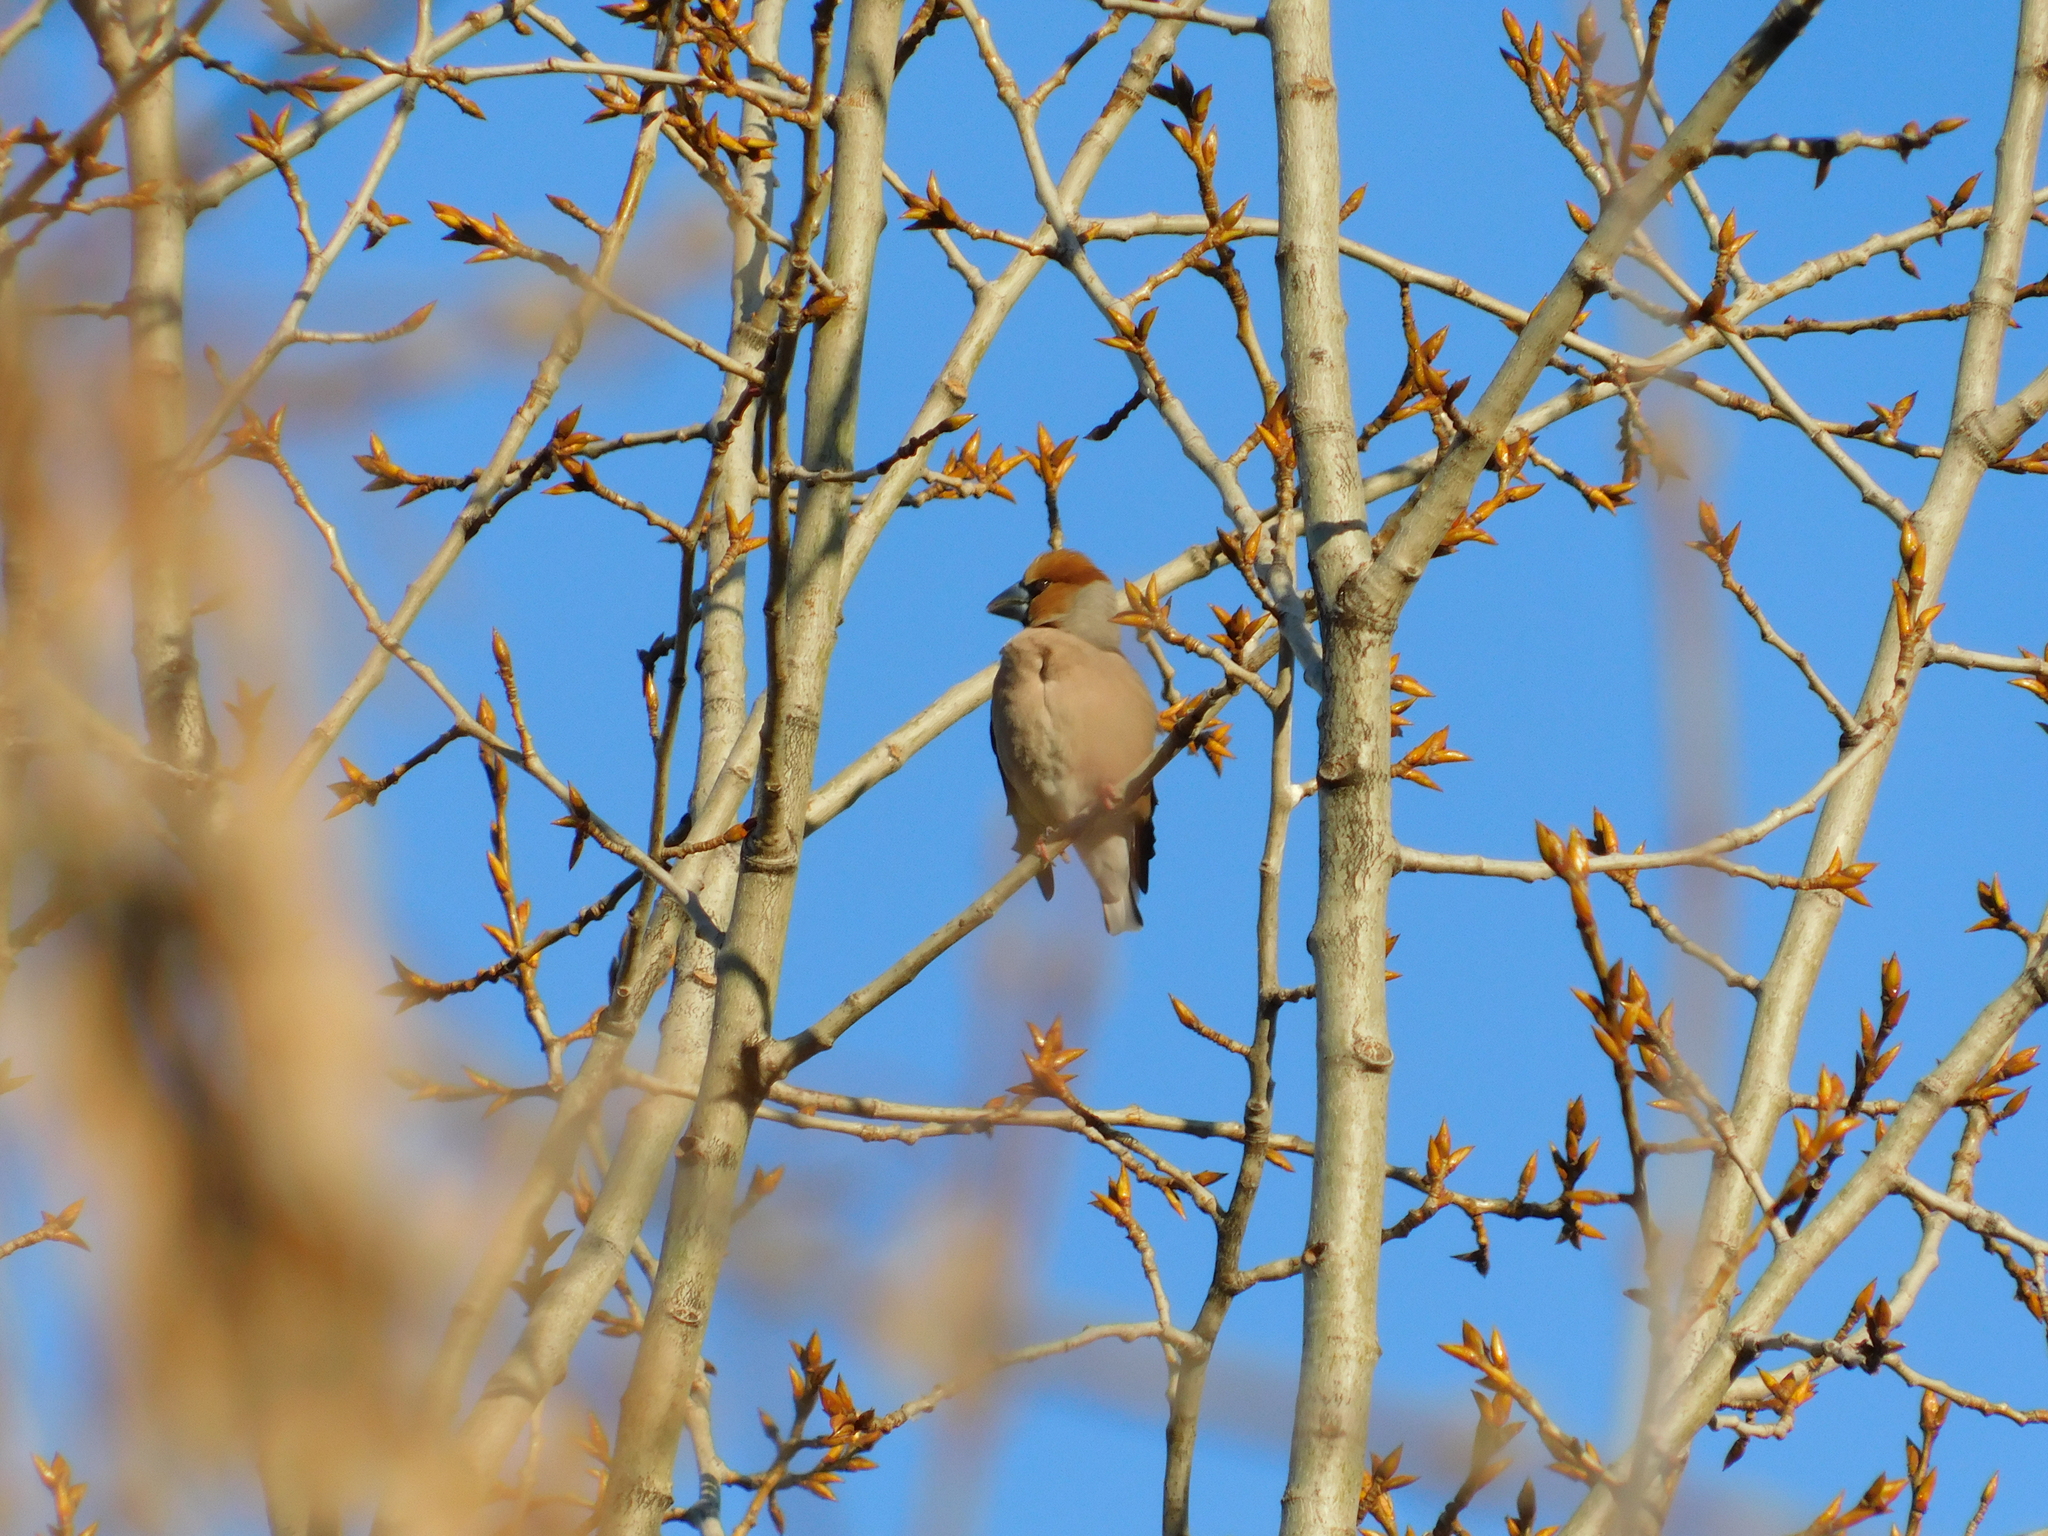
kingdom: Animalia
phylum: Chordata
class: Aves
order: Passeriformes
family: Fringillidae
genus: Coccothraustes
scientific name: Coccothraustes coccothraustes
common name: Hawfinch
